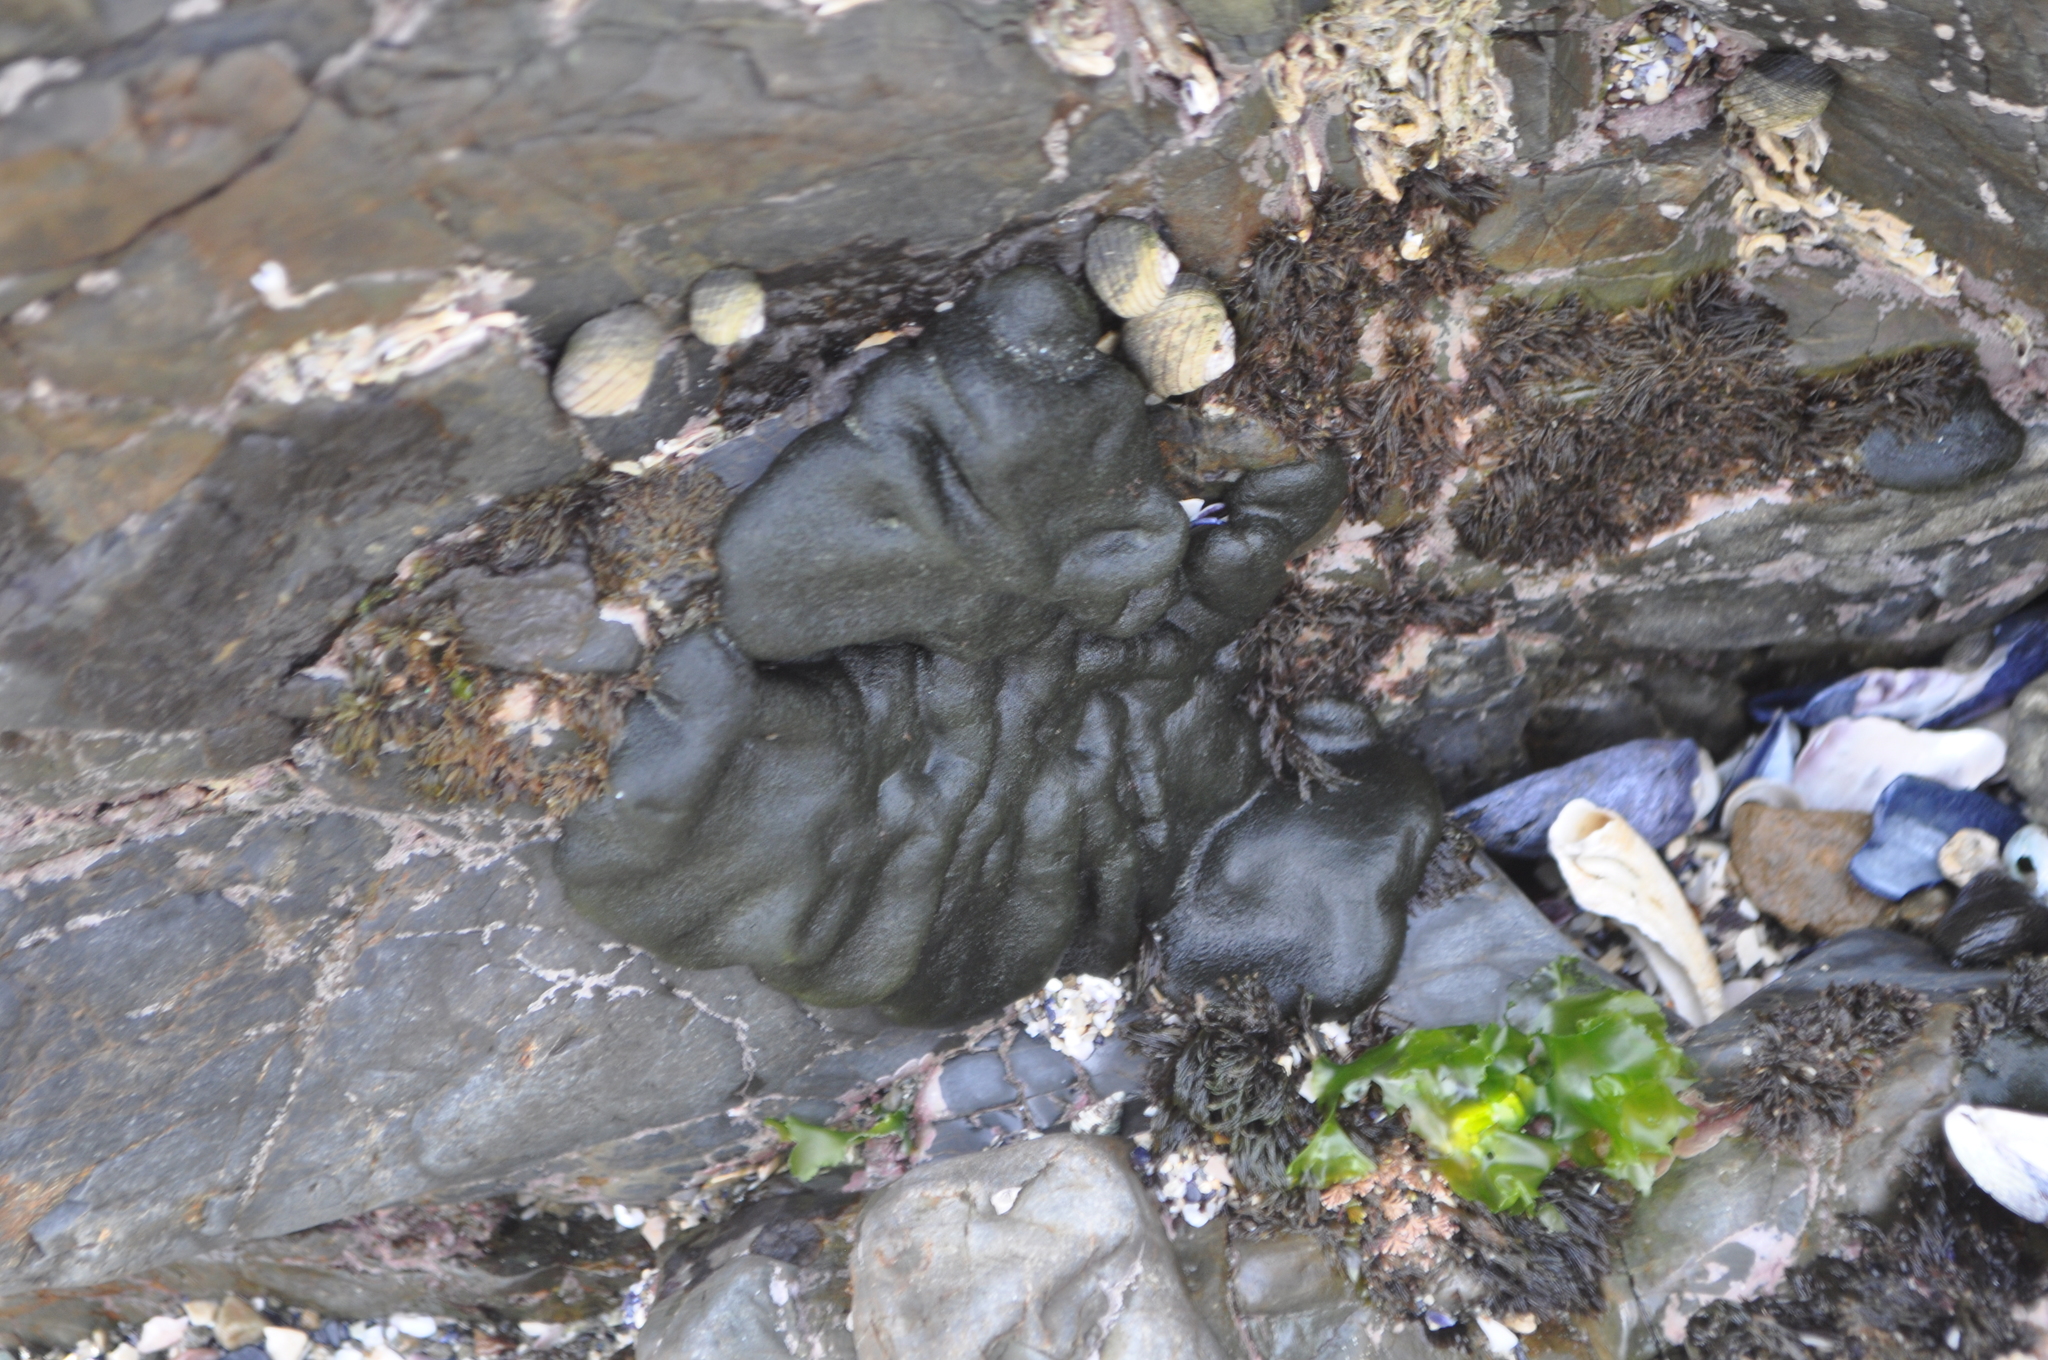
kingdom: Plantae
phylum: Chlorophyta
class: Ulvophyceae
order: Bryopsidales
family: Codiaceae
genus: Codium
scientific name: Codium convolutum
